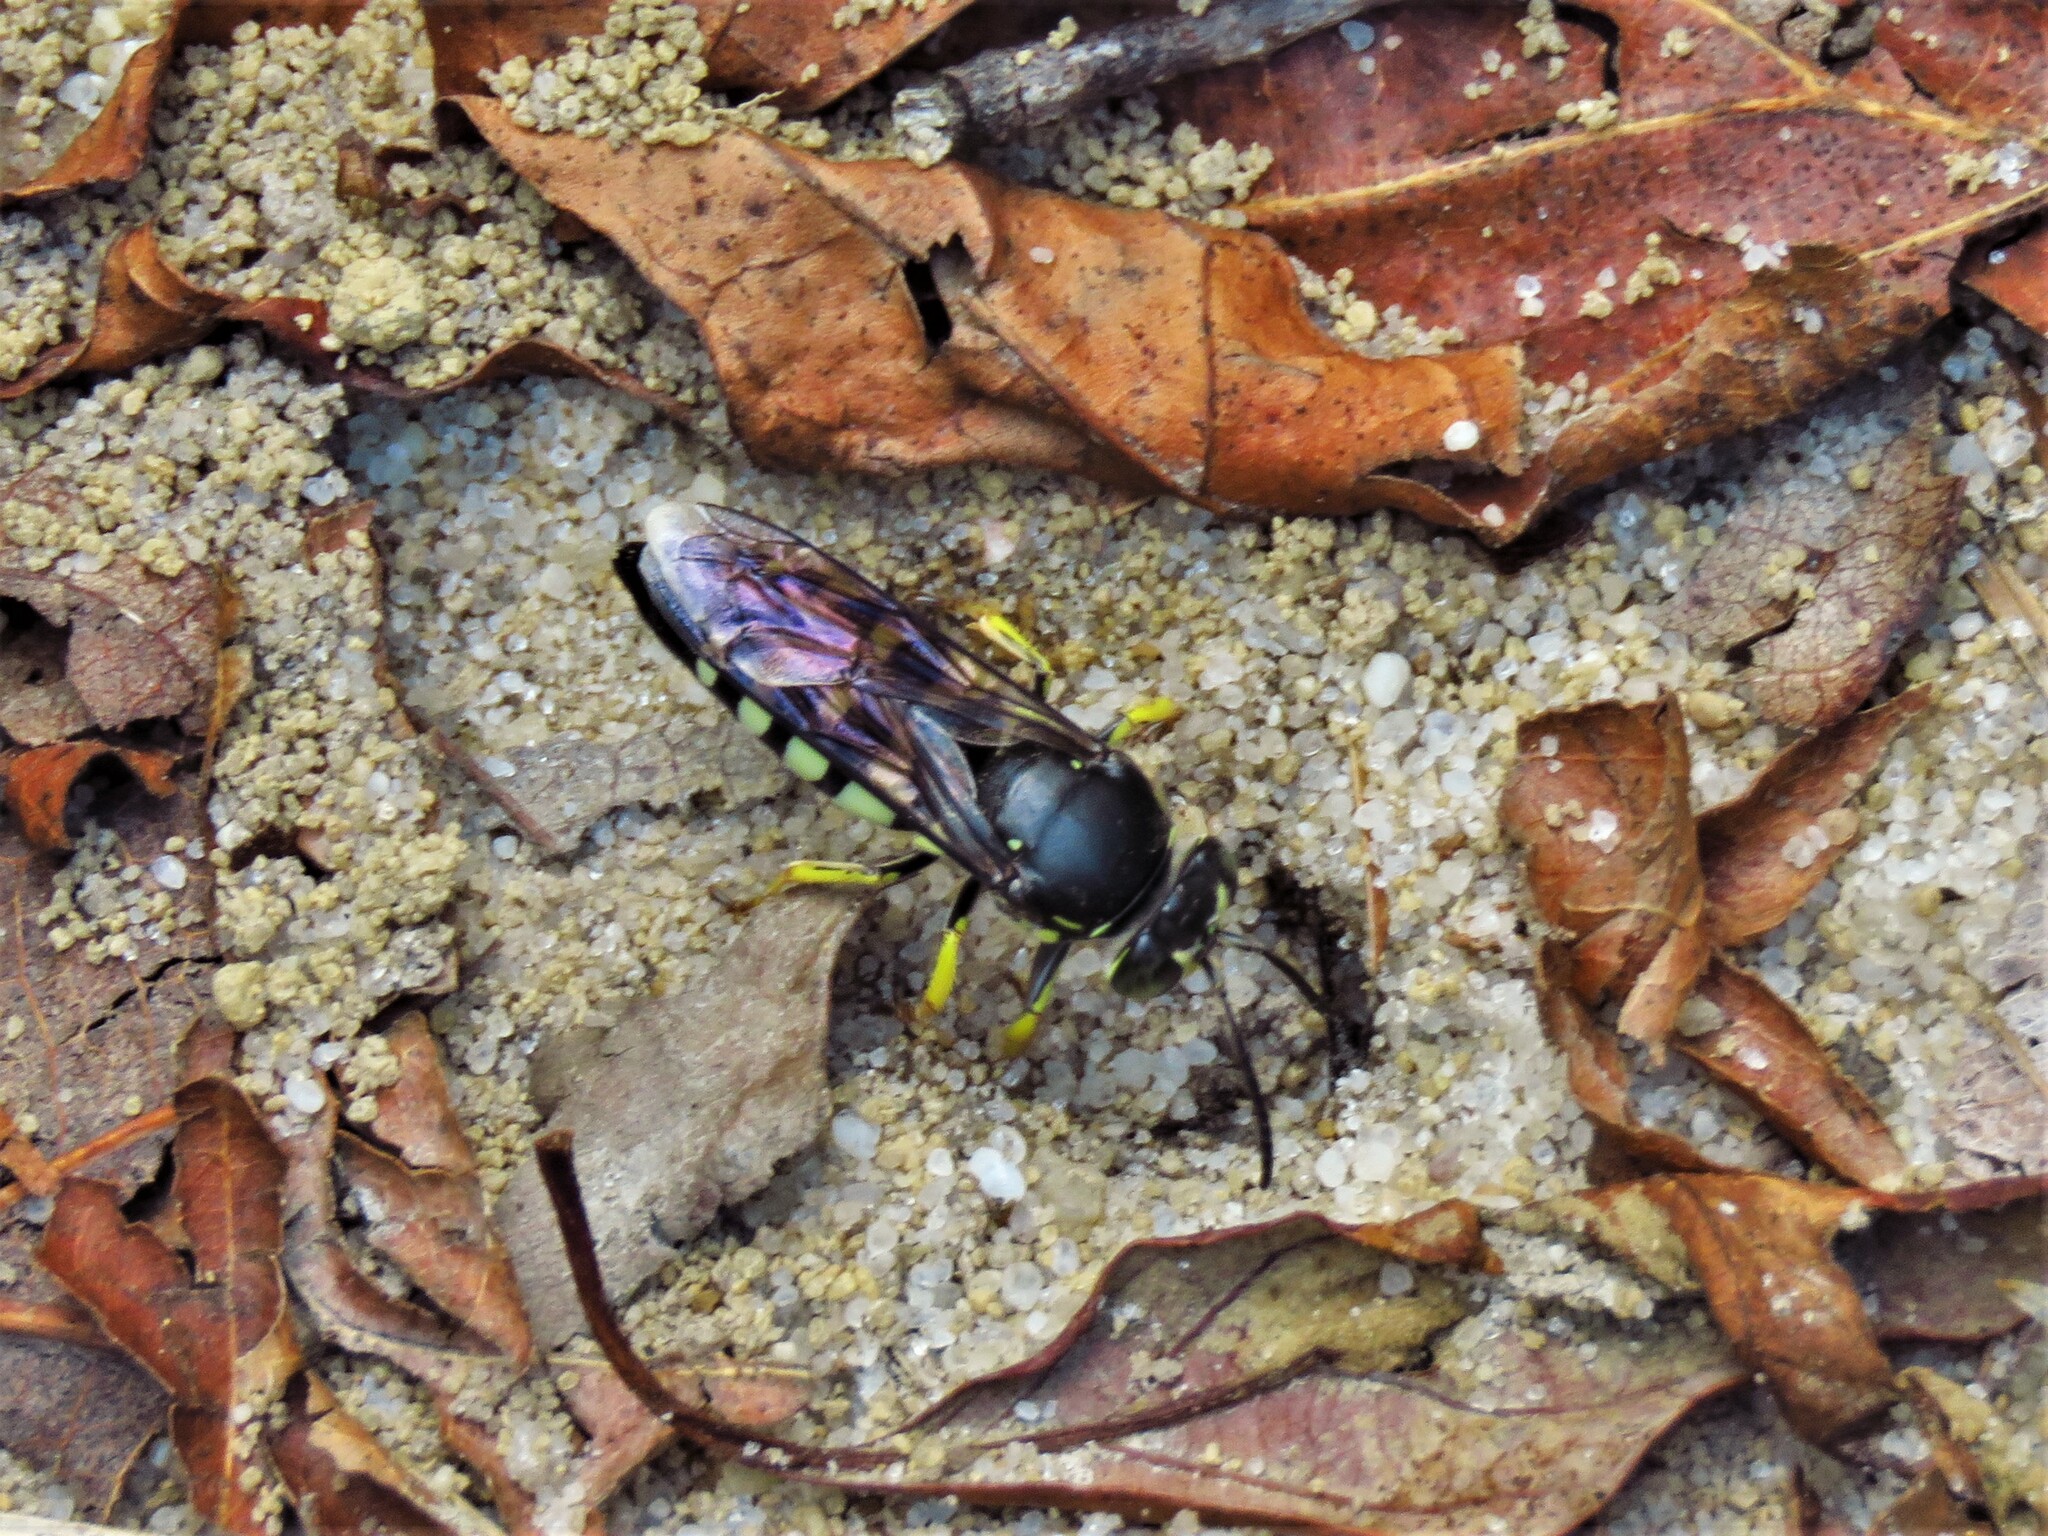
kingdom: Animalia
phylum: Arthropoda
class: Insecta
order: Hymenoptera
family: Crabronidae
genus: Bicyrtes
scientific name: Bicyrtes quadrifasciatus
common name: Four-banded stink bug hunter wasp
